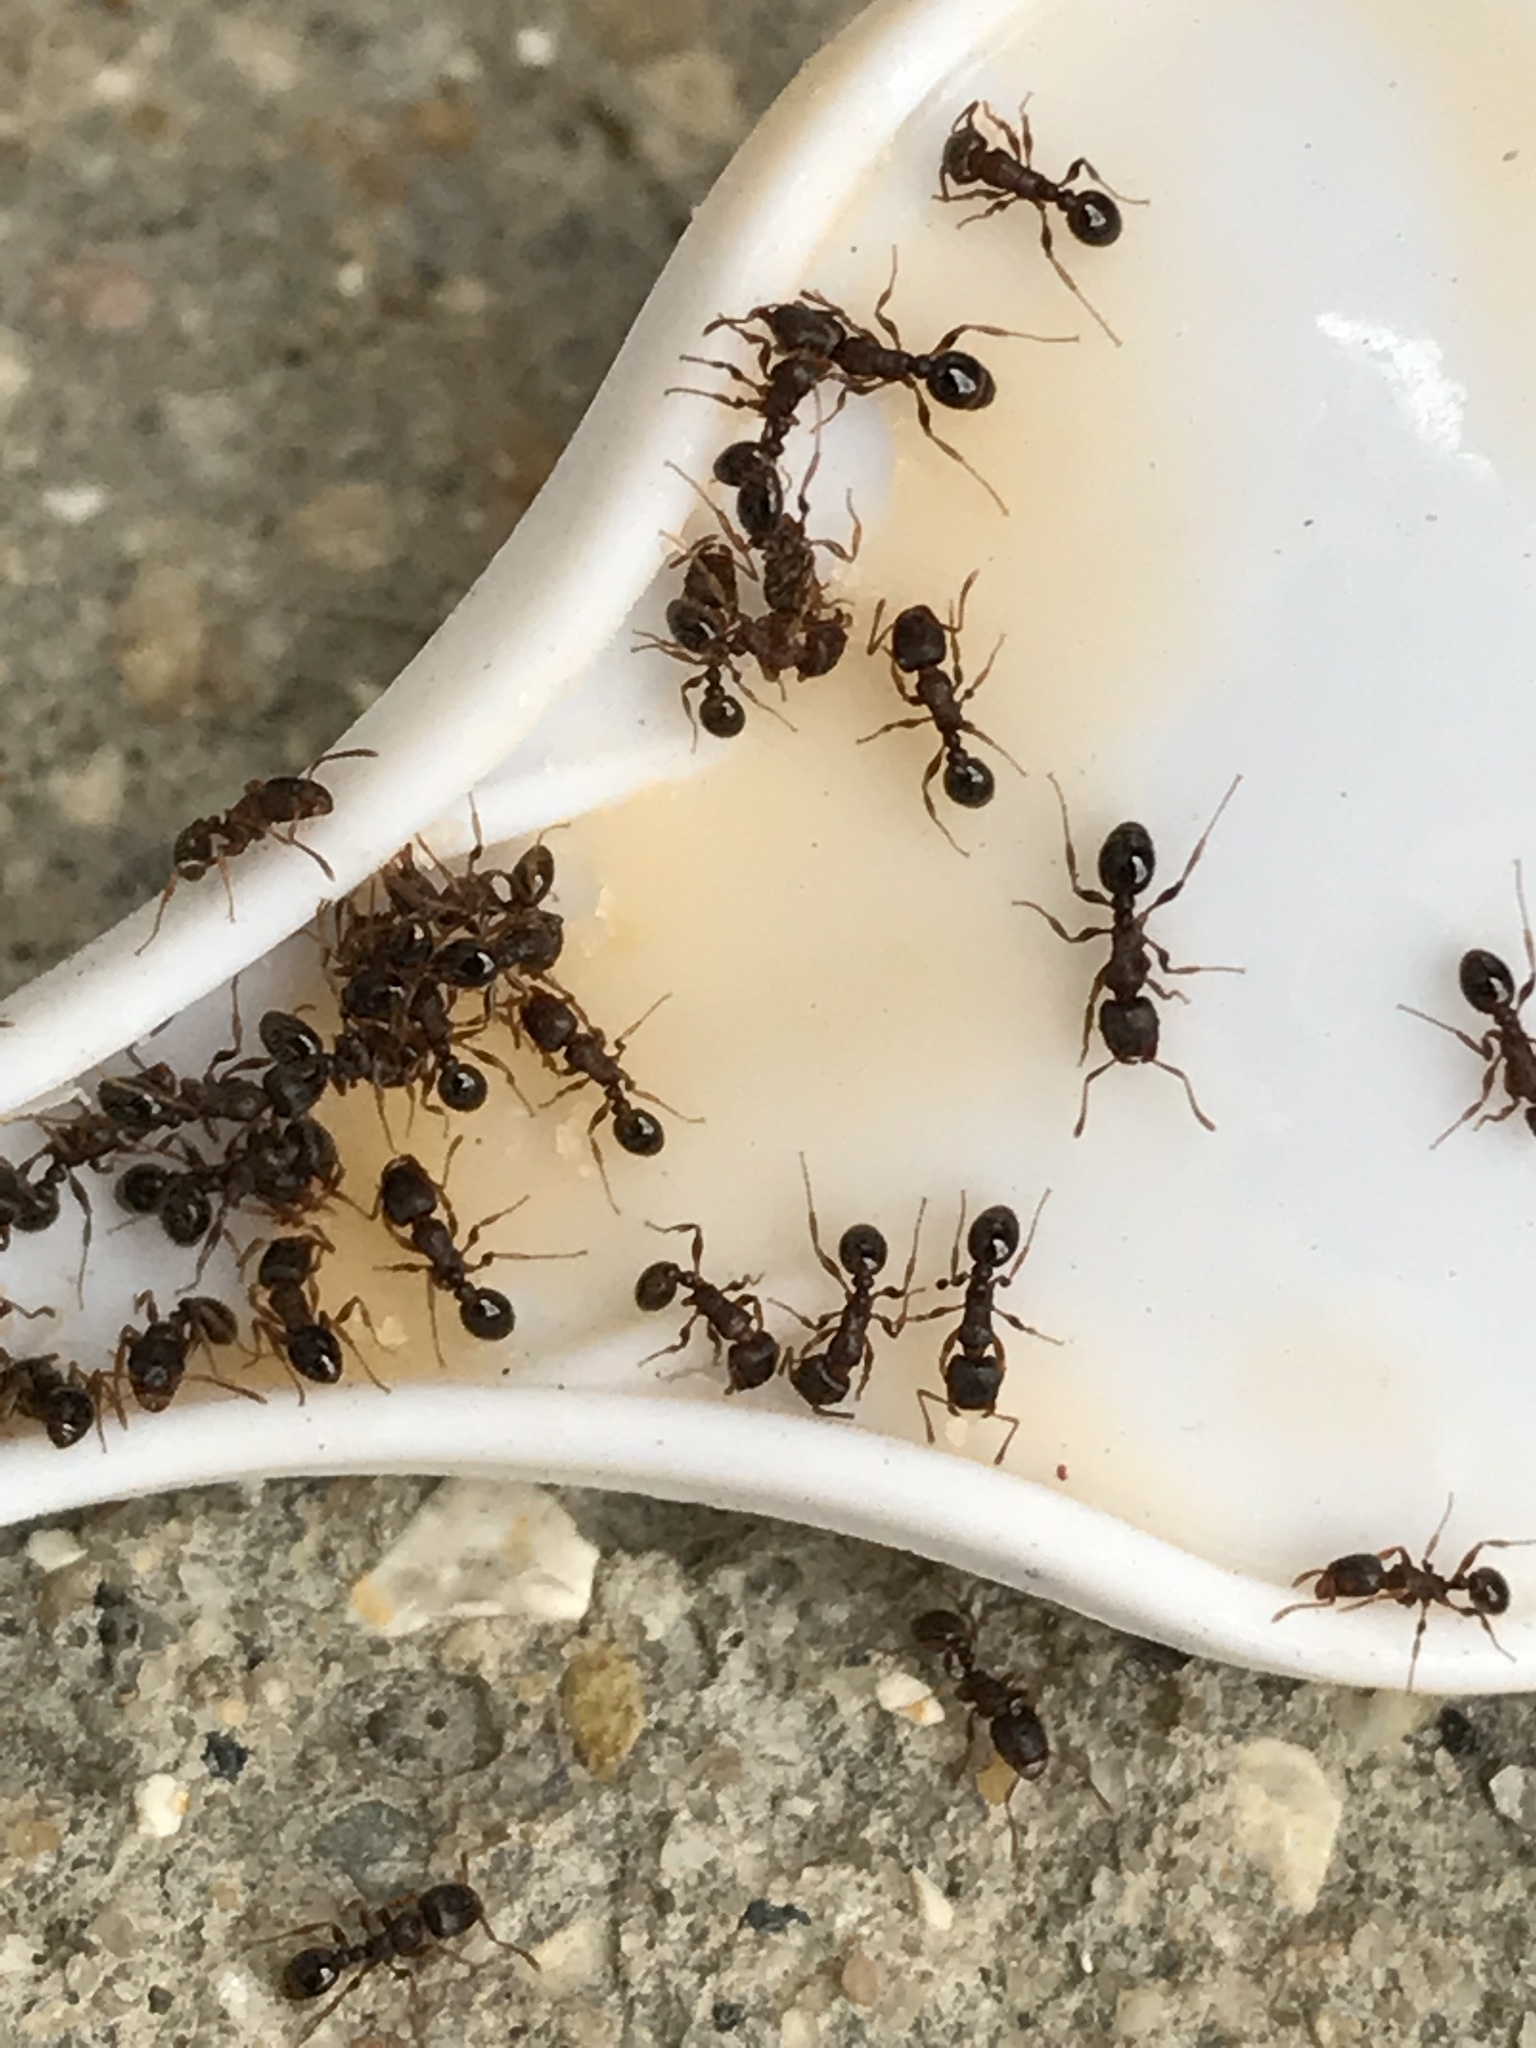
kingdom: Animalia
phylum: Arthropoda
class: Insecta
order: Hymenoptera
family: Formicidae
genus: Tetramorium
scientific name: Tetramorium immigrans
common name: Pavement ant
